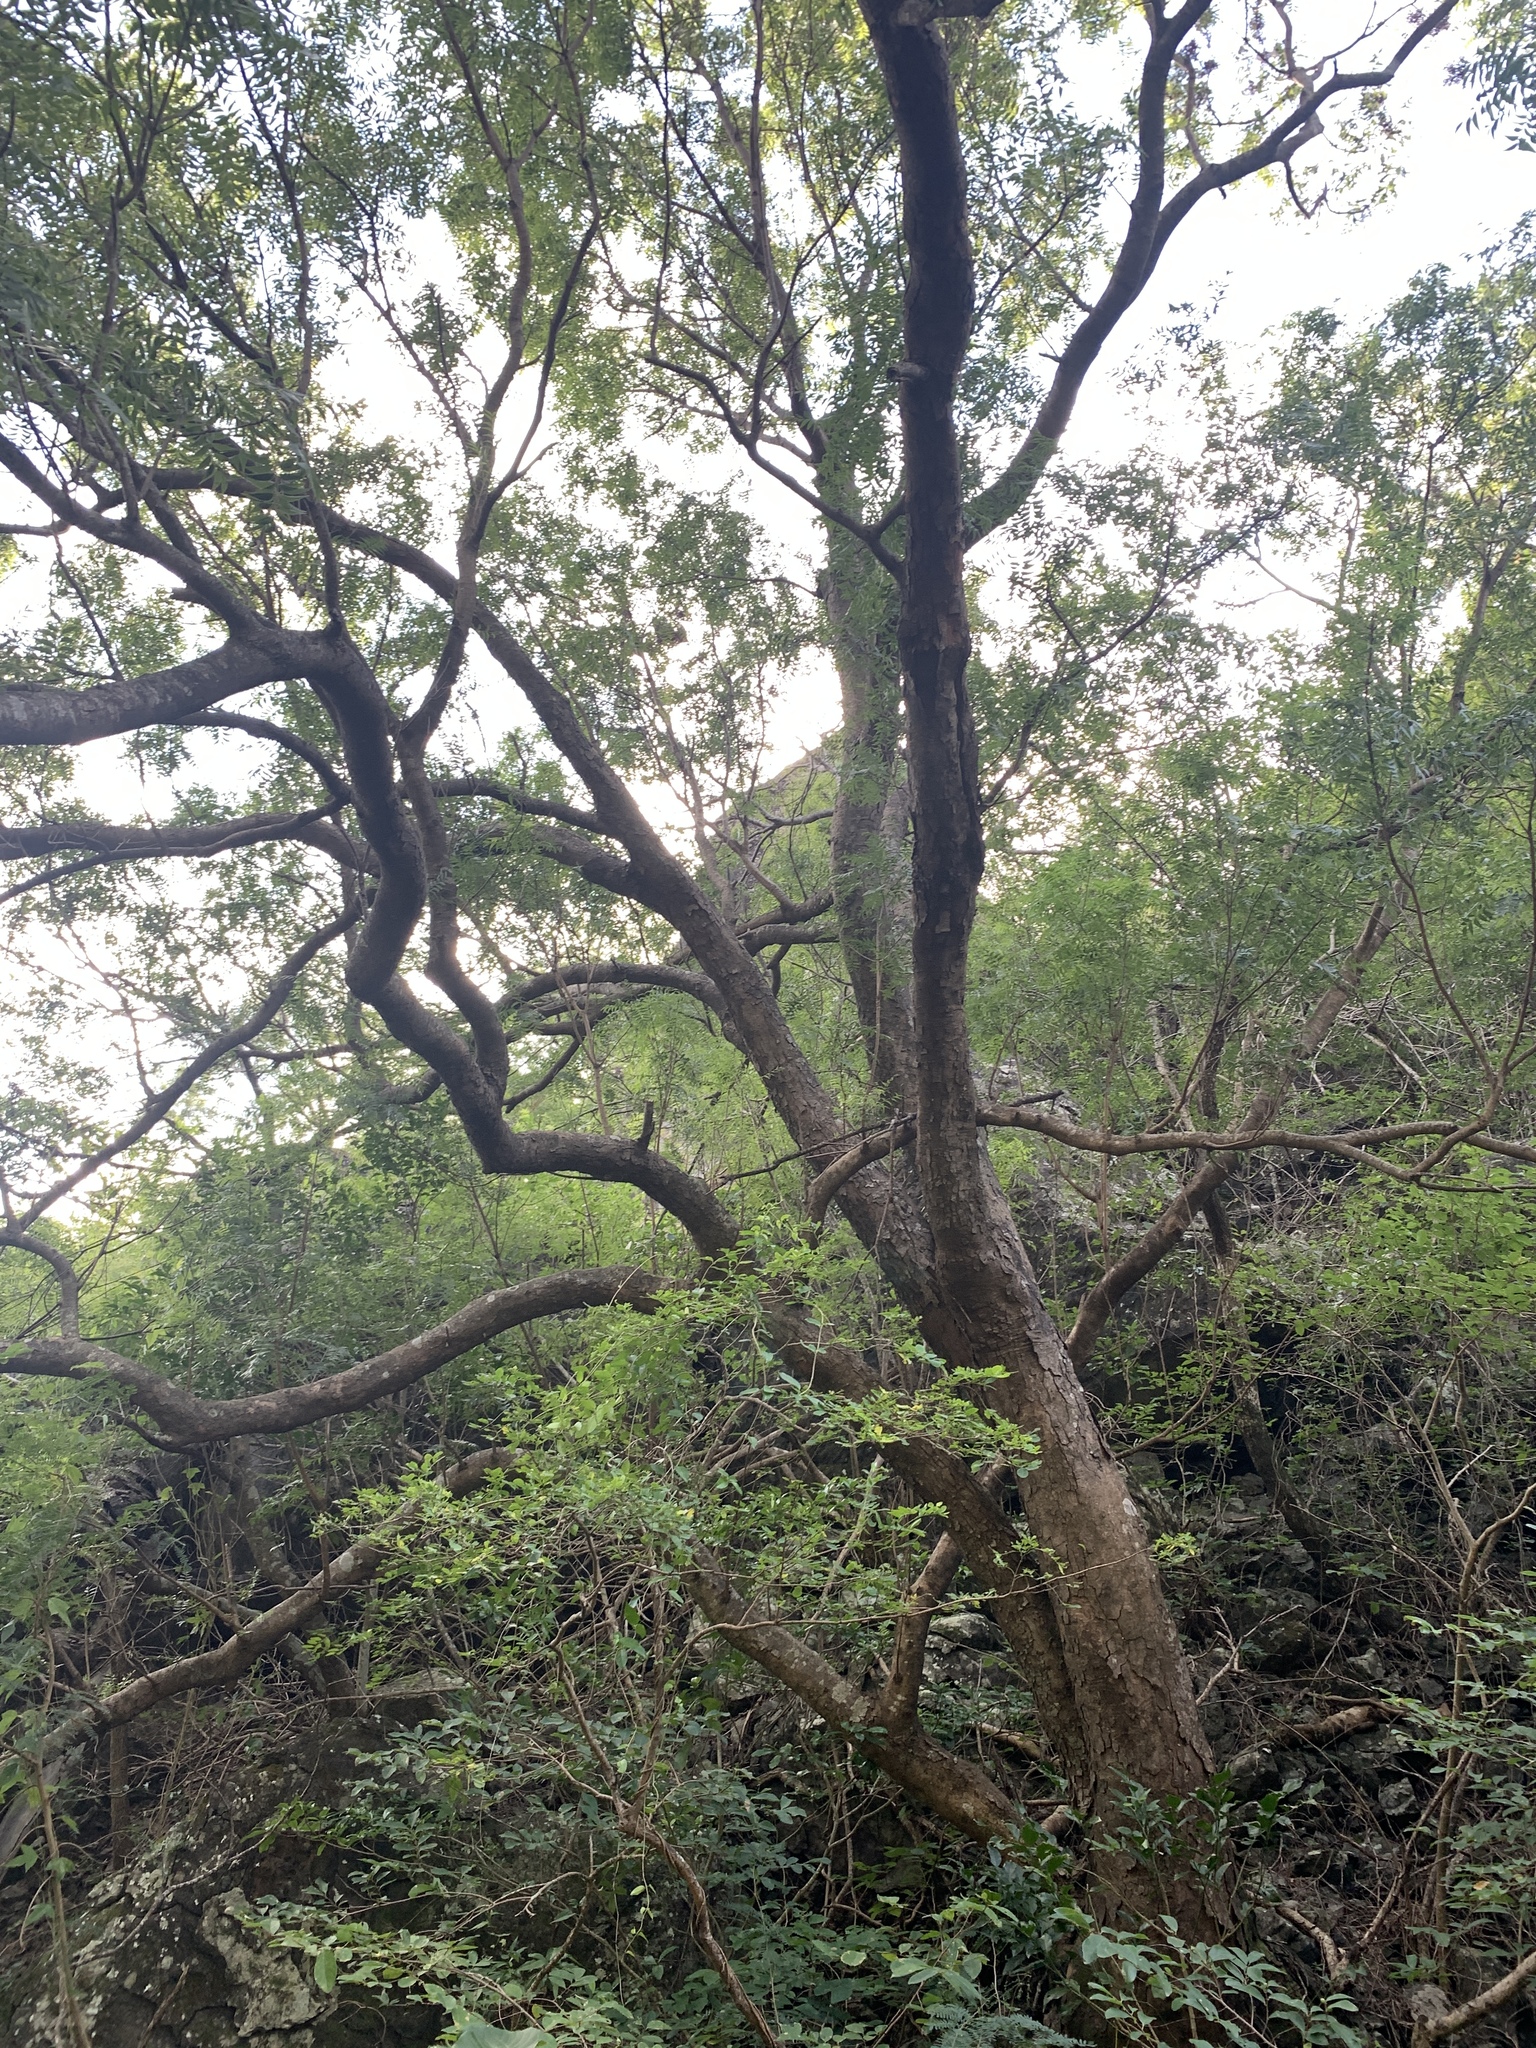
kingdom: Plantae
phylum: Tracheophyta
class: Magnoliopsida
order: Sapindales
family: Anacardiaceae
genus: Pistacia
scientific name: Pistacia chinensis
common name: Chinese pistache
